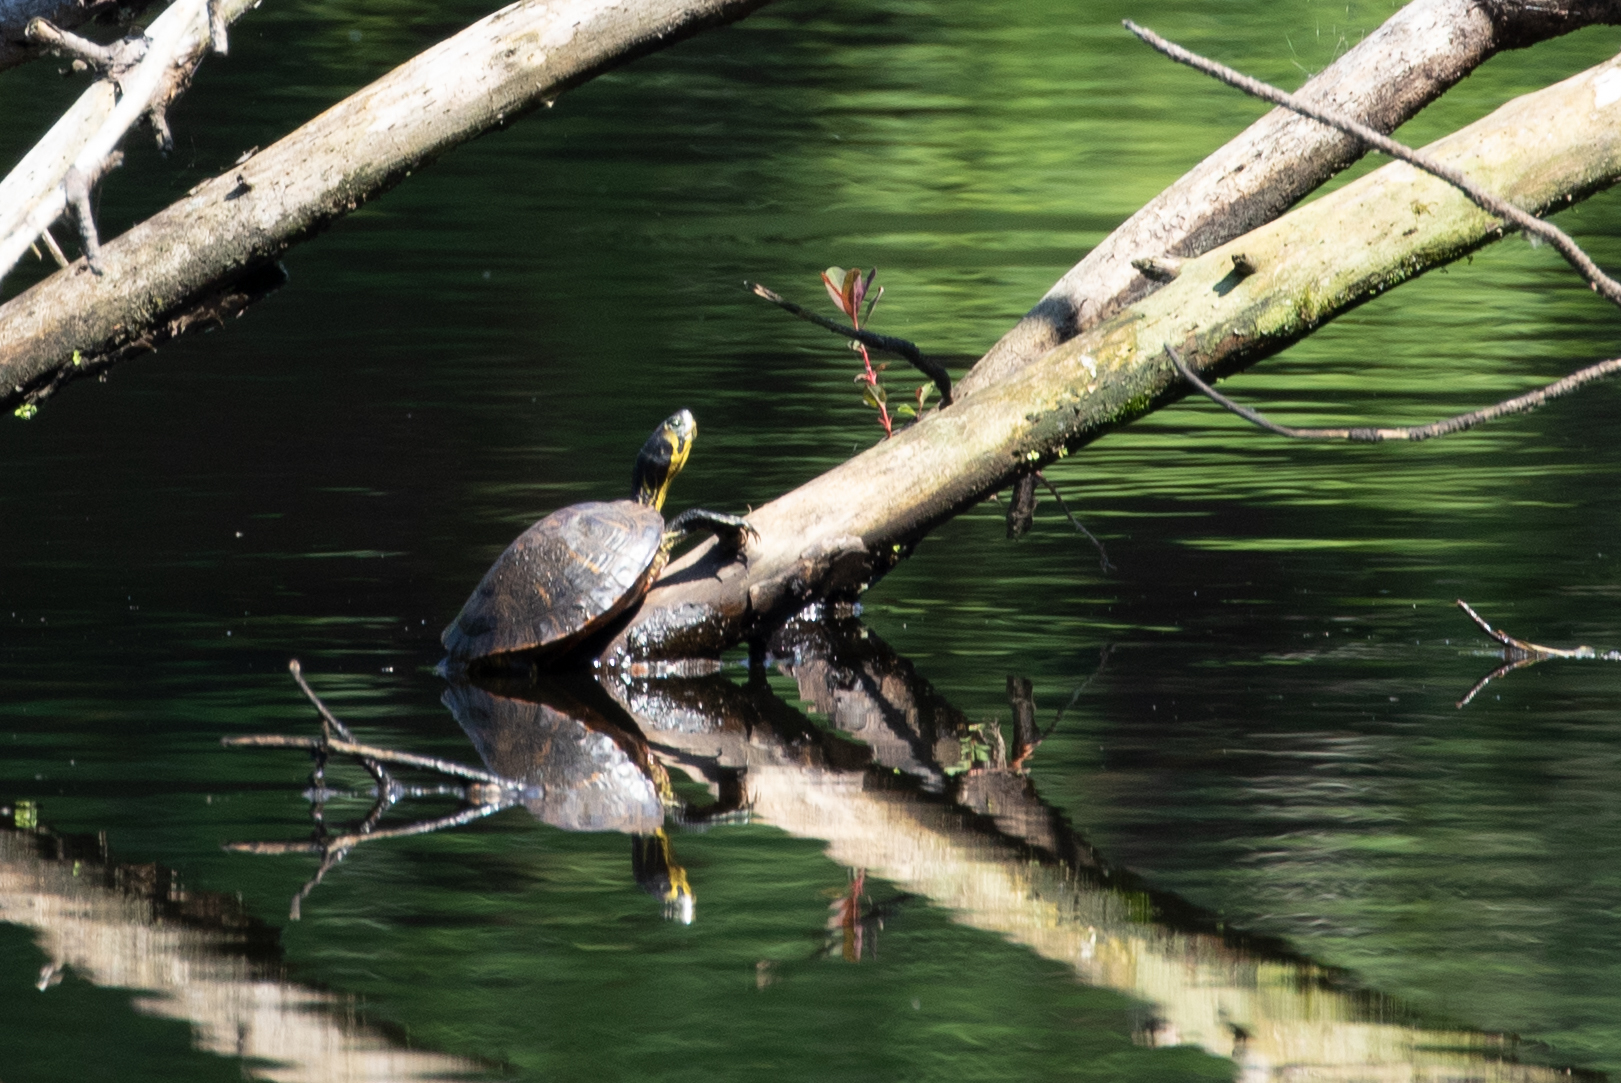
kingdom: Animalia
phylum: Chordata
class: Testudines
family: Emydidae
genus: Trachemys
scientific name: Trachemys scripta
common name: Slider
